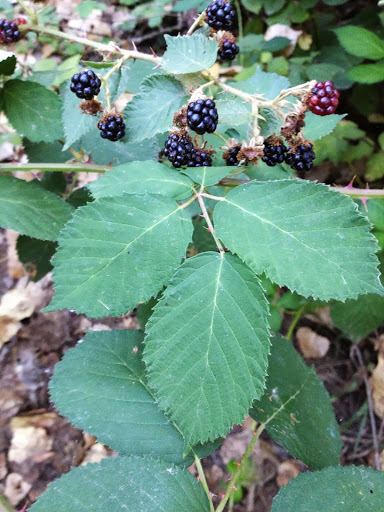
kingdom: Plantae
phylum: Tracheophyta
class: Magnoliopsida
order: Rosales
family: Rosaceae
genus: Rubus
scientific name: Rubus armeniacus
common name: Himalayan blackberry
